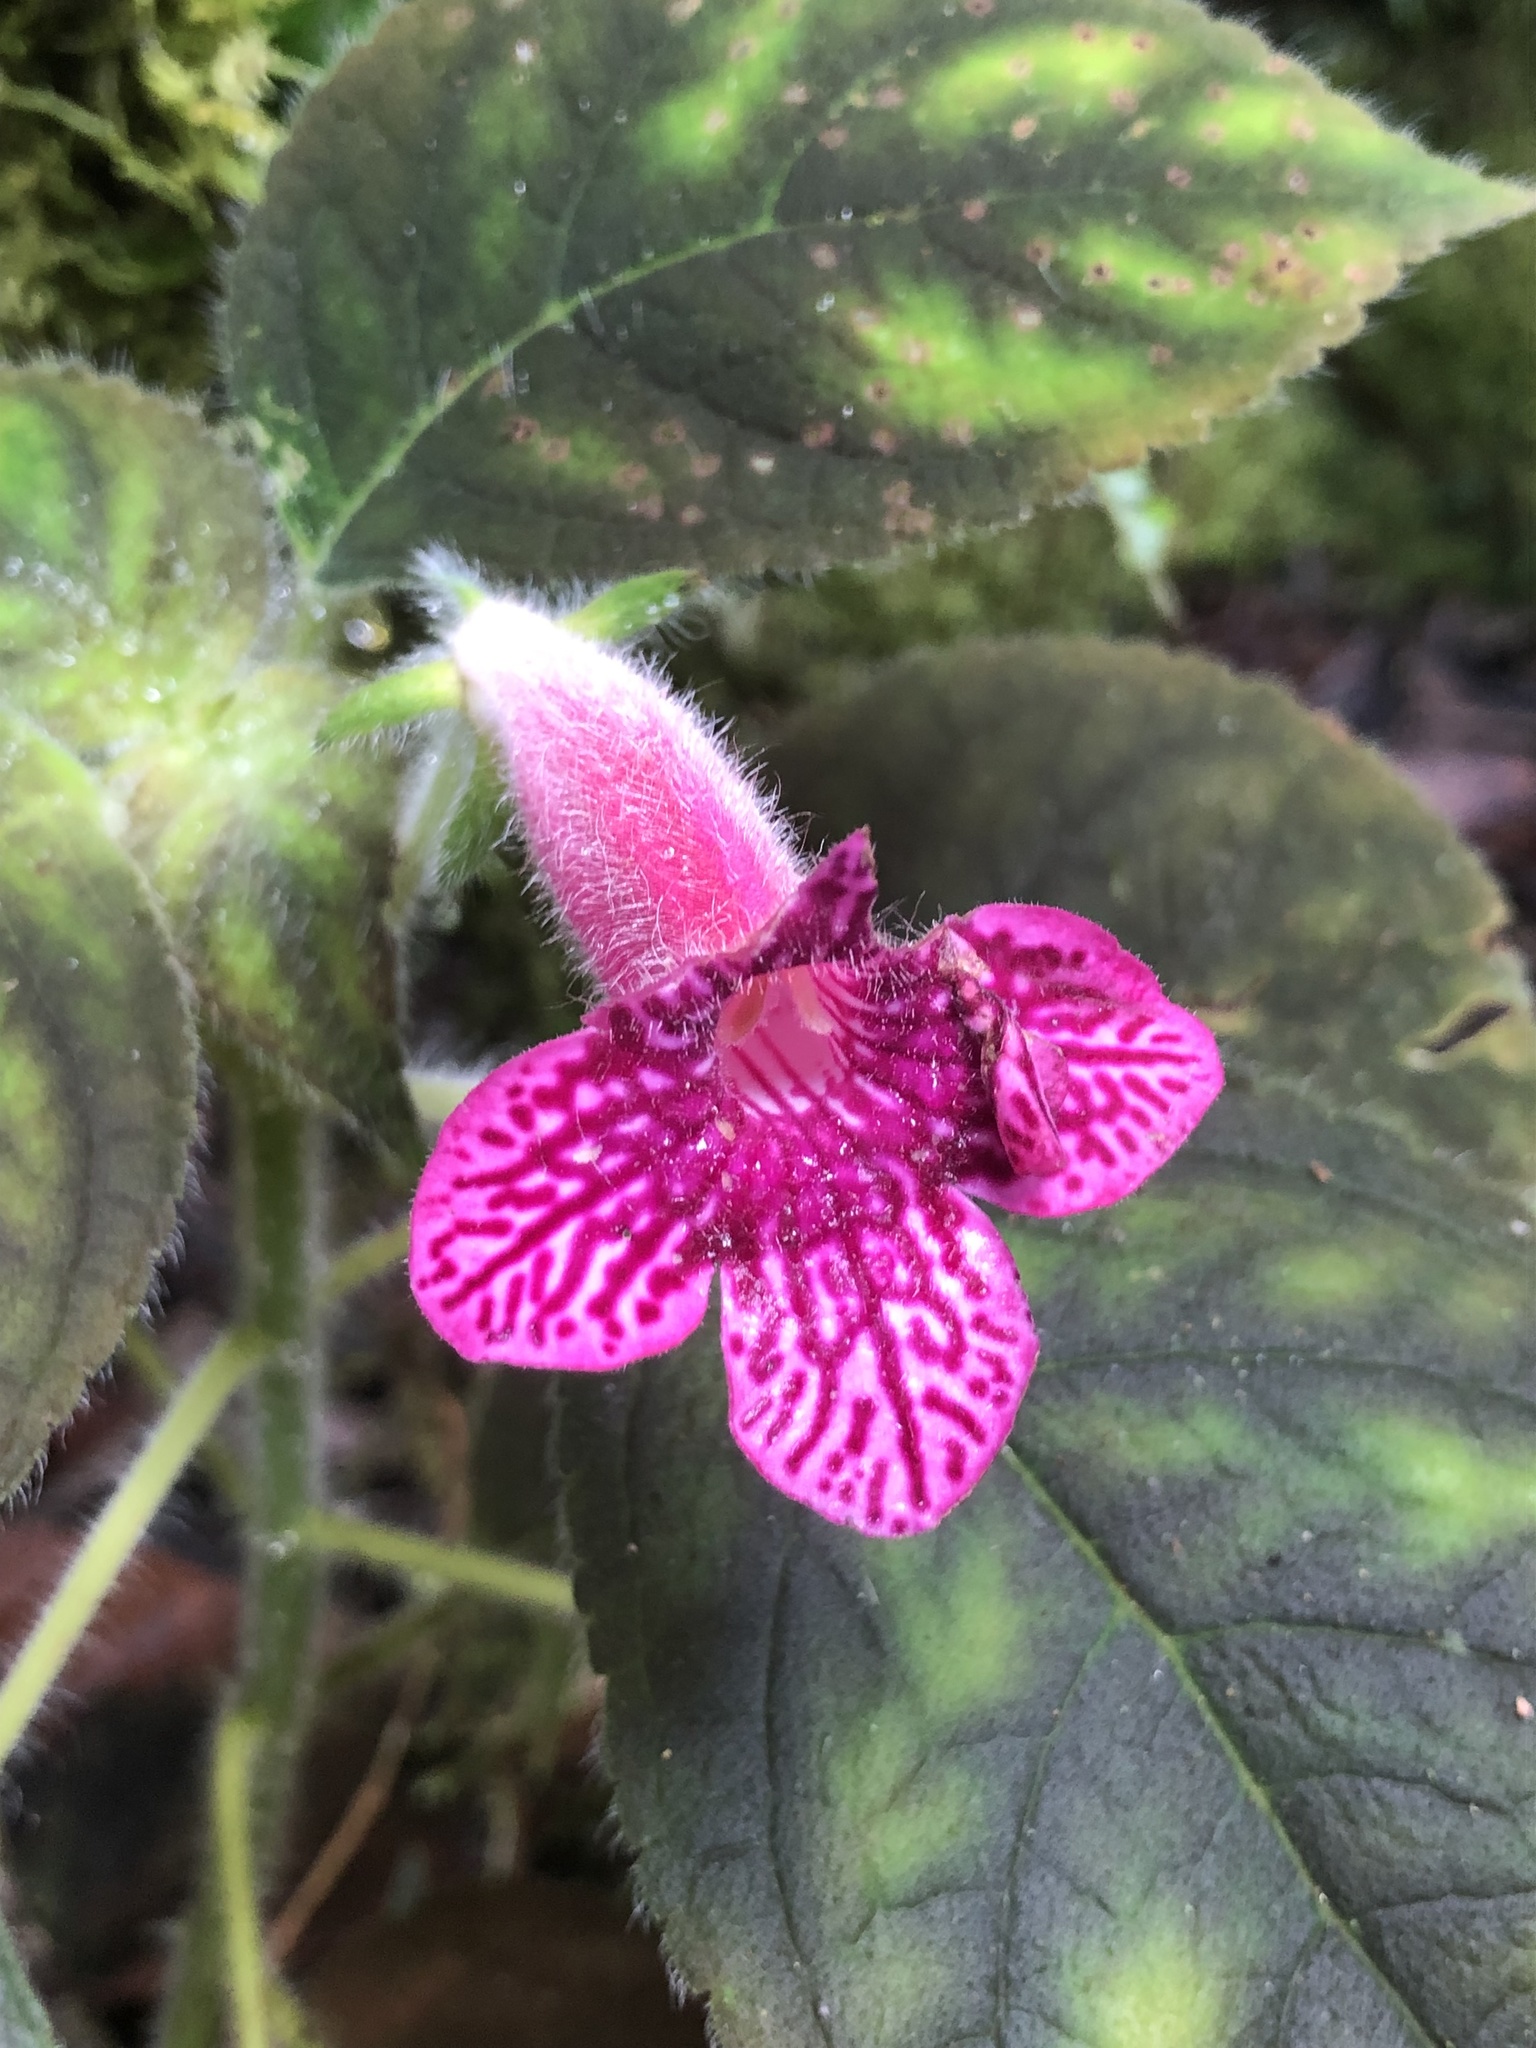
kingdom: Plantae
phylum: Tracheophyta
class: Magnoliopsida
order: Lamiales
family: Gesneriaceae
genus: Kohleria
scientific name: Kohleria amabilis
